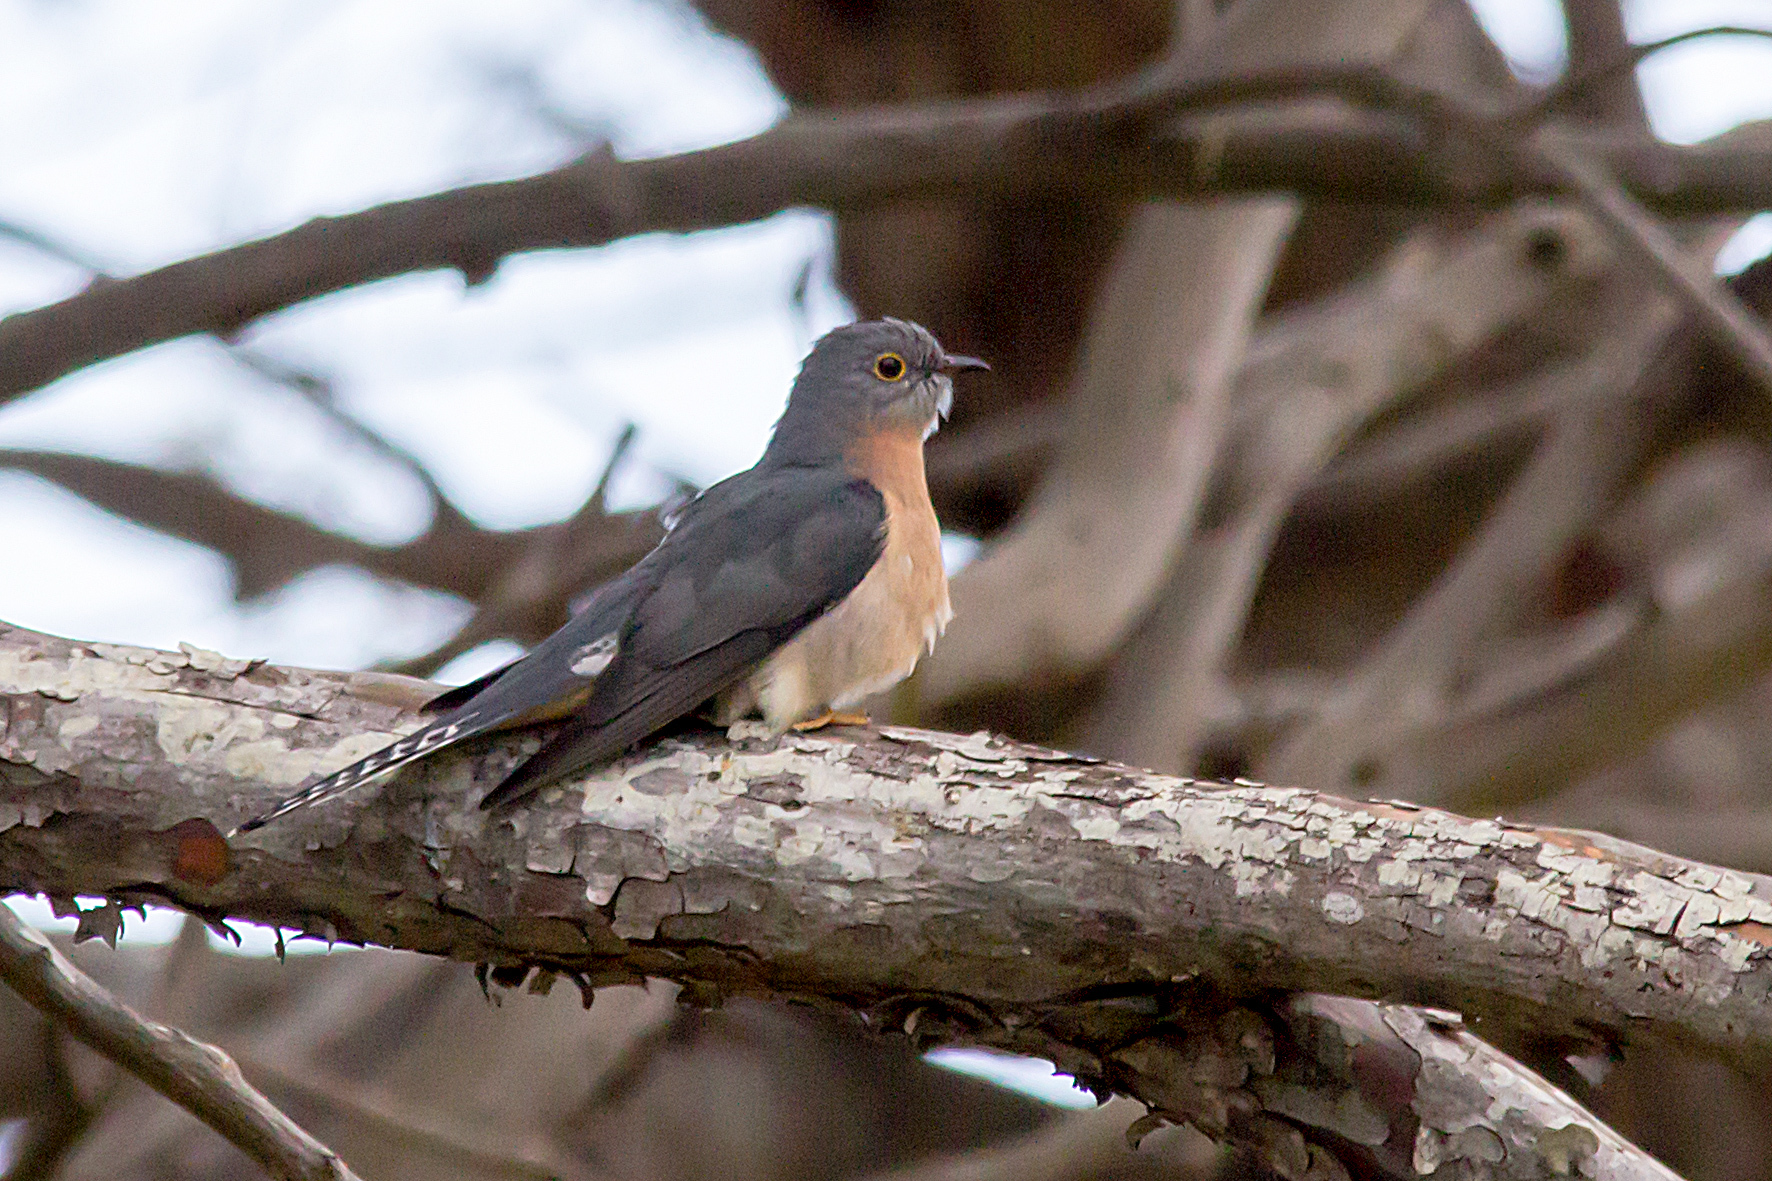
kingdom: Animalia
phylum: Chordata
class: Aves
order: Cuculiformes
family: Cuculidae
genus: Cacomantis
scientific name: Cacomantis flabelliformis
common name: Fan-tailed cuckoo
